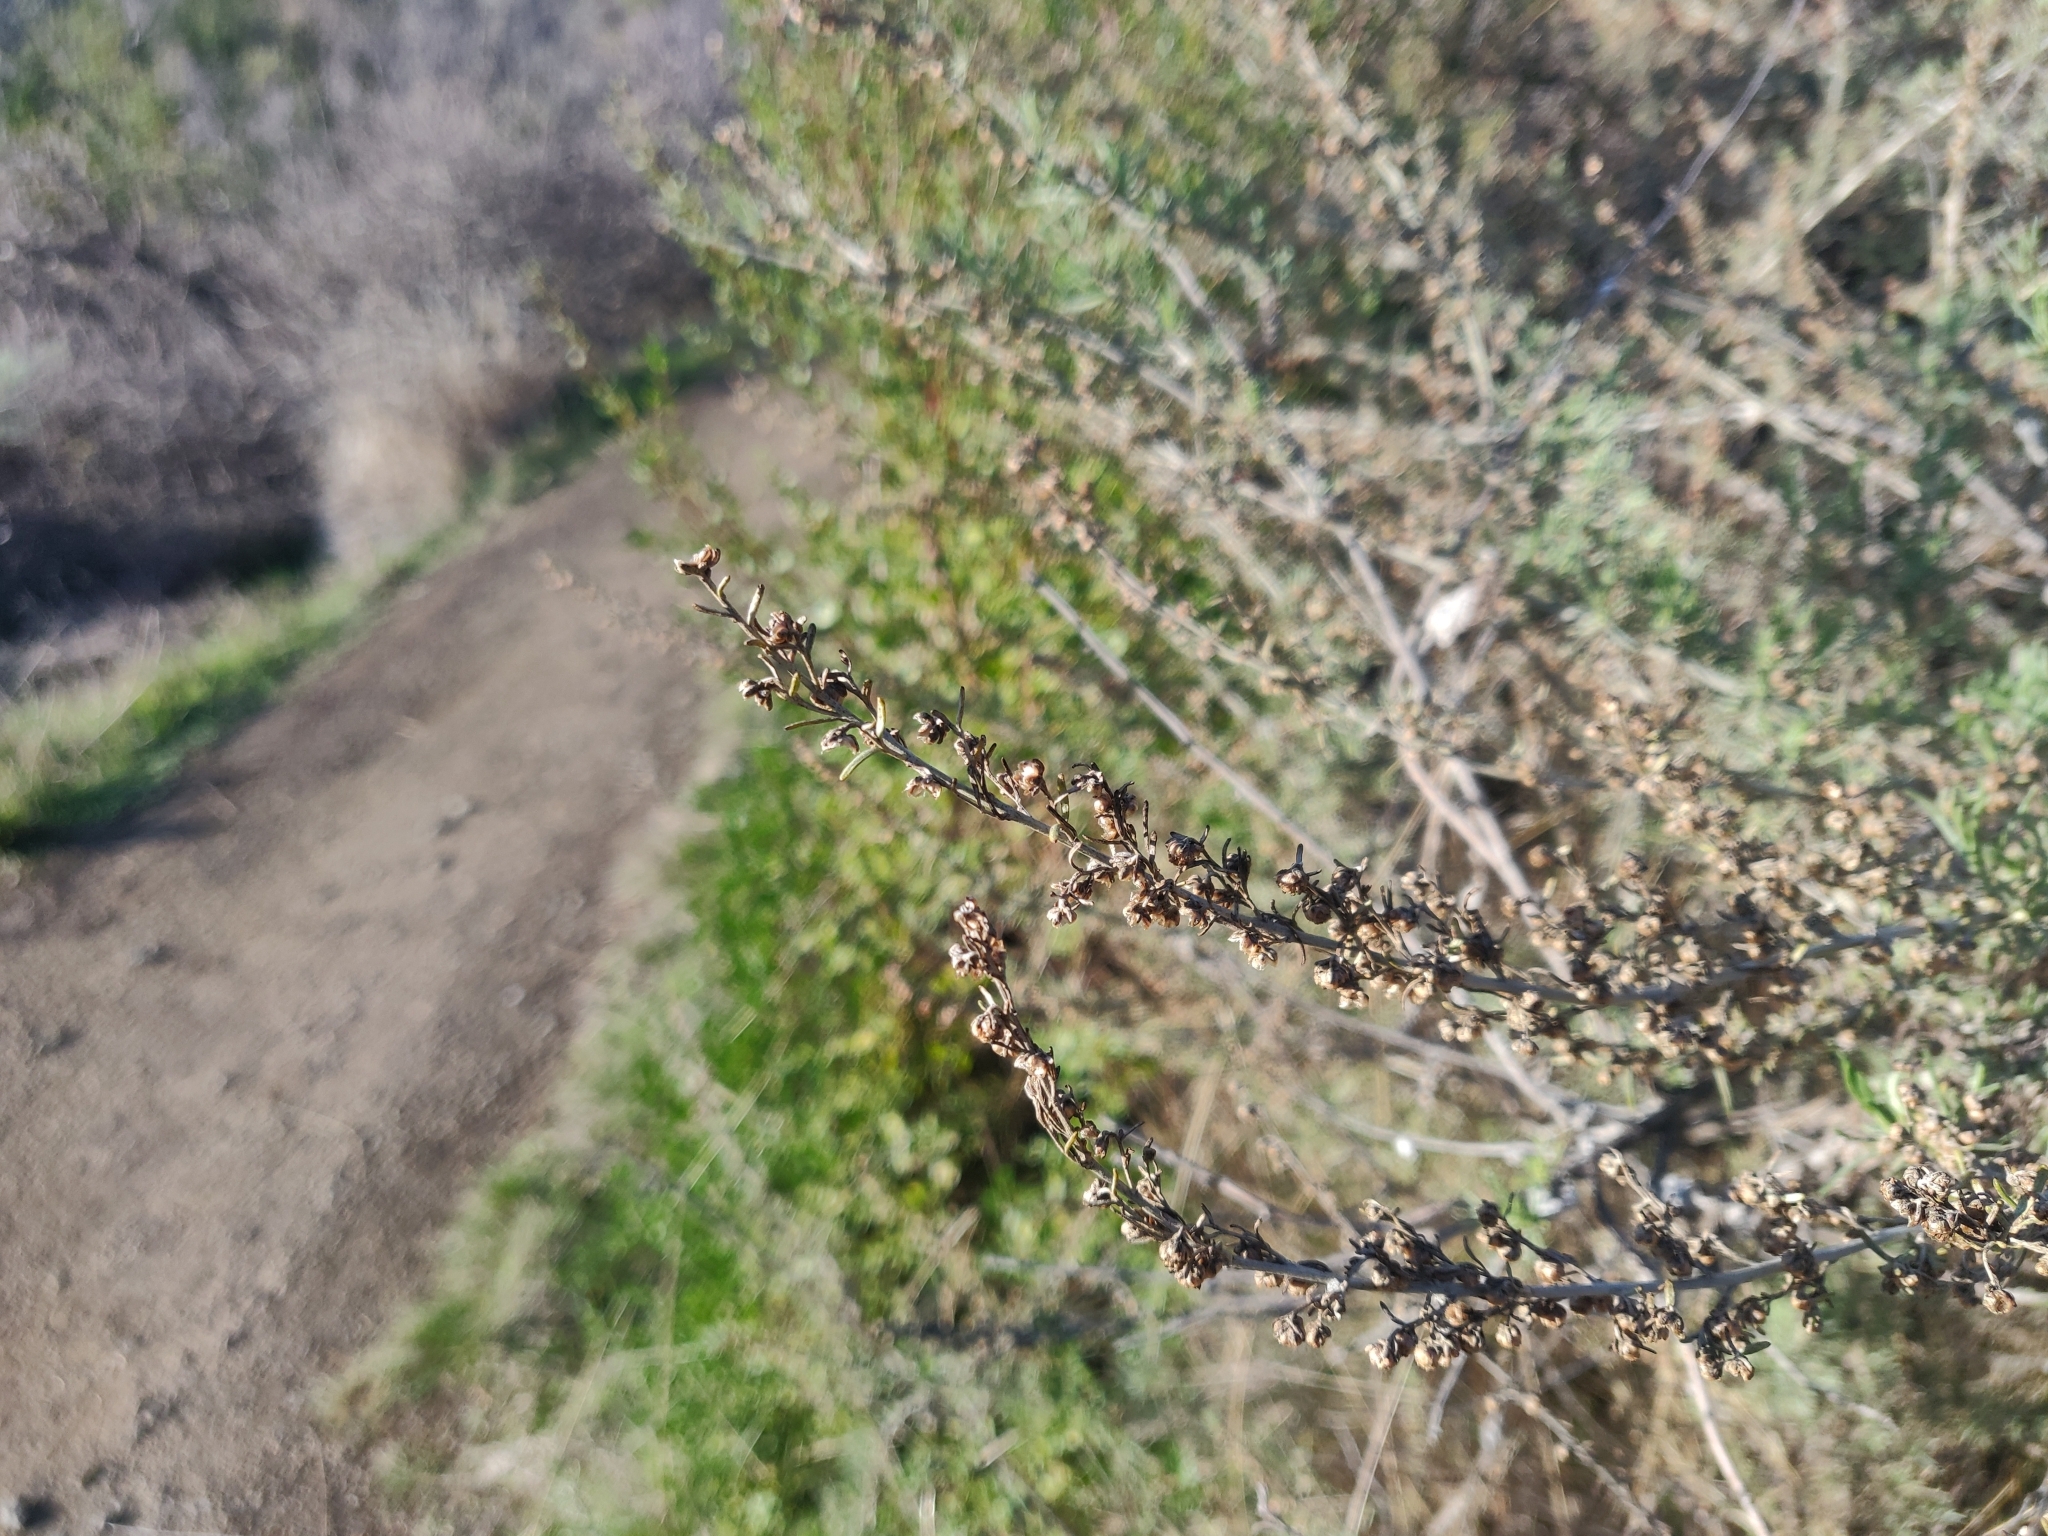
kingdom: Plantae
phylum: Tracheophyta
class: Magnoliopsida
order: Asterales
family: Asteraceae
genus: Artemisia
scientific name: Artemisia californica
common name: California sagebrush
